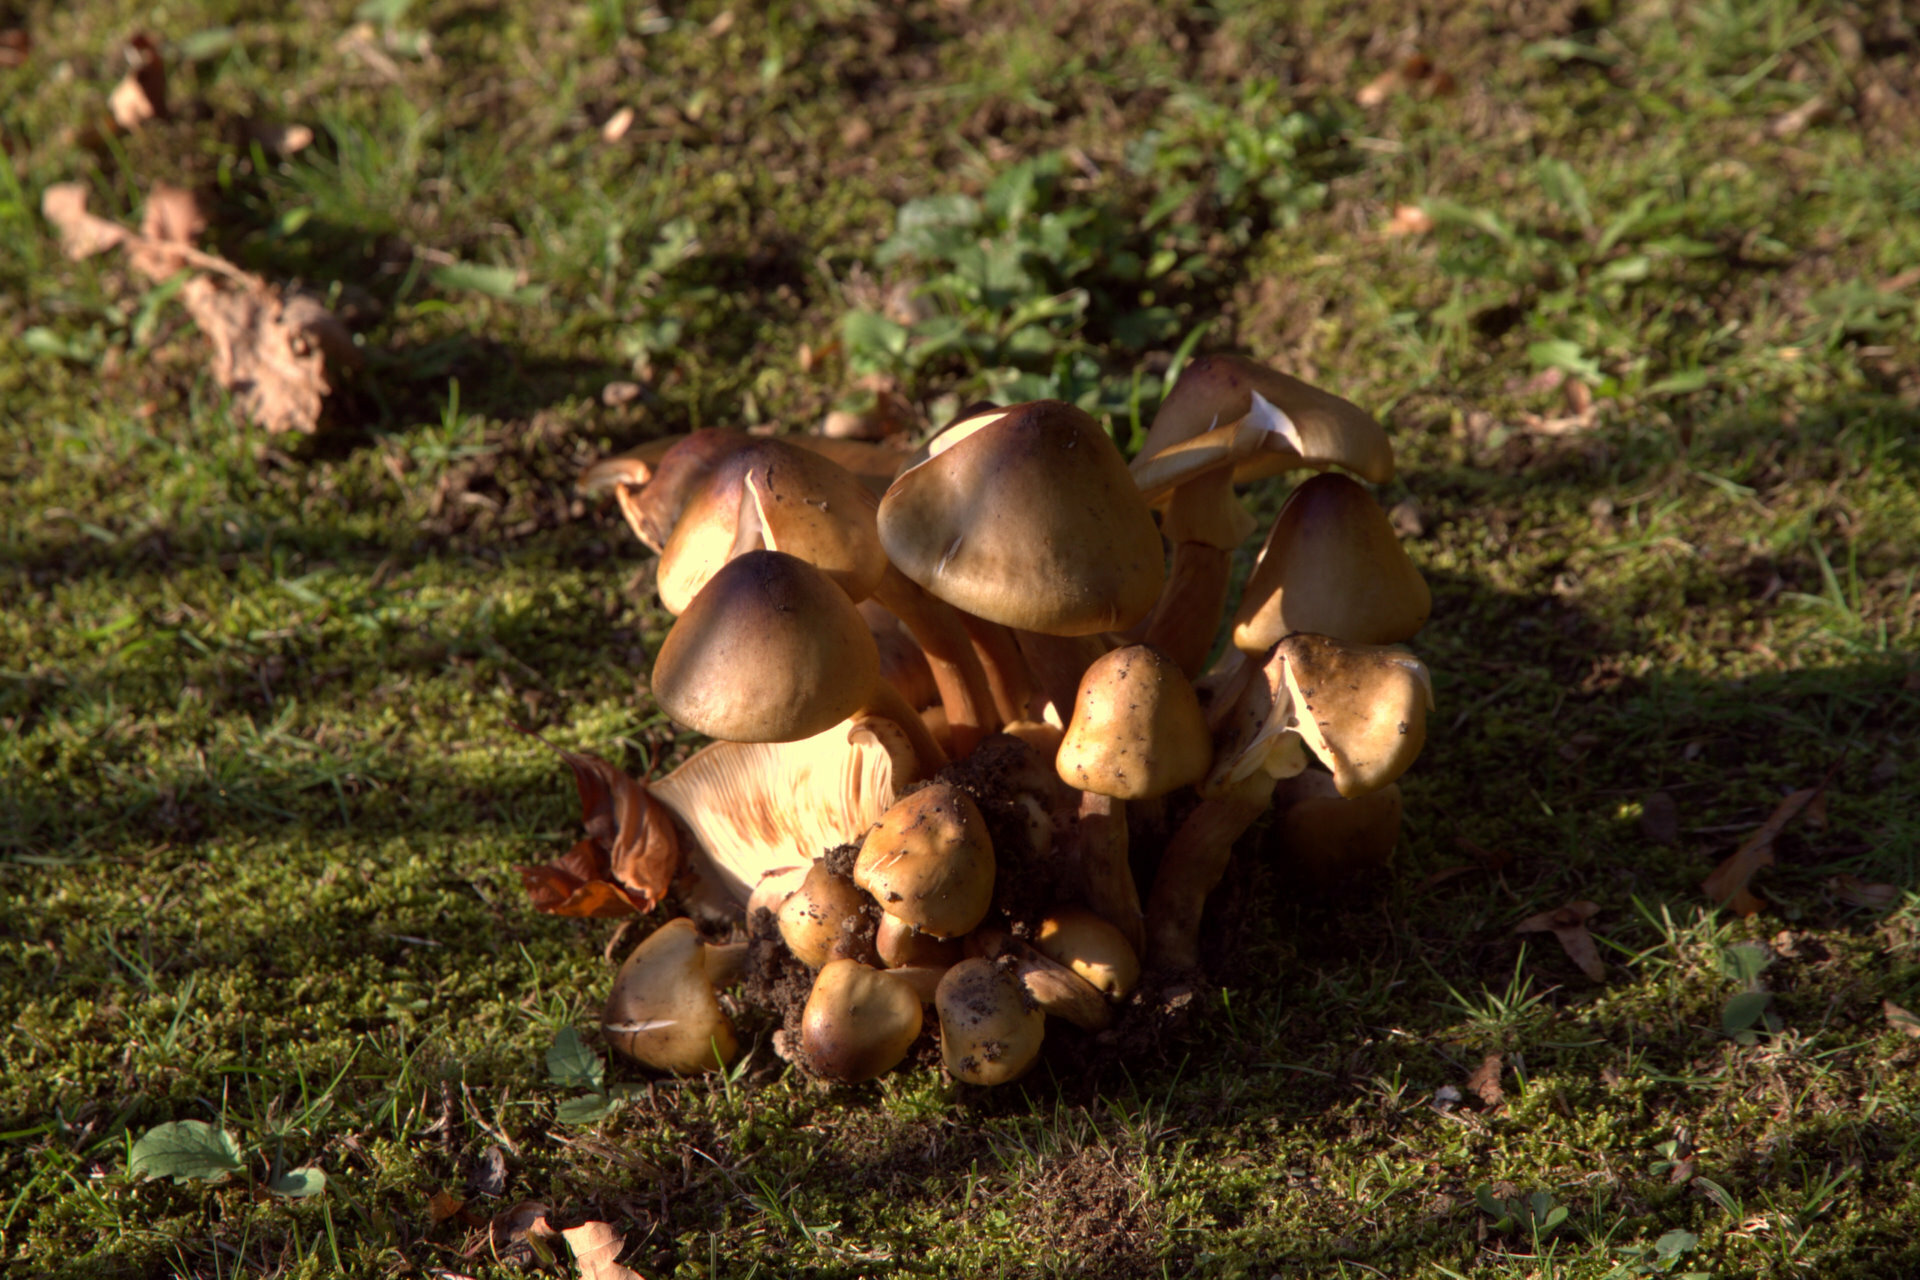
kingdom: Fungi
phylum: Basidiomycota
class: Agaricomycetes
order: Agaricales
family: Physalacriaceae
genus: Armillaria
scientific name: Armillaria mellea
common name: Honey fungus
